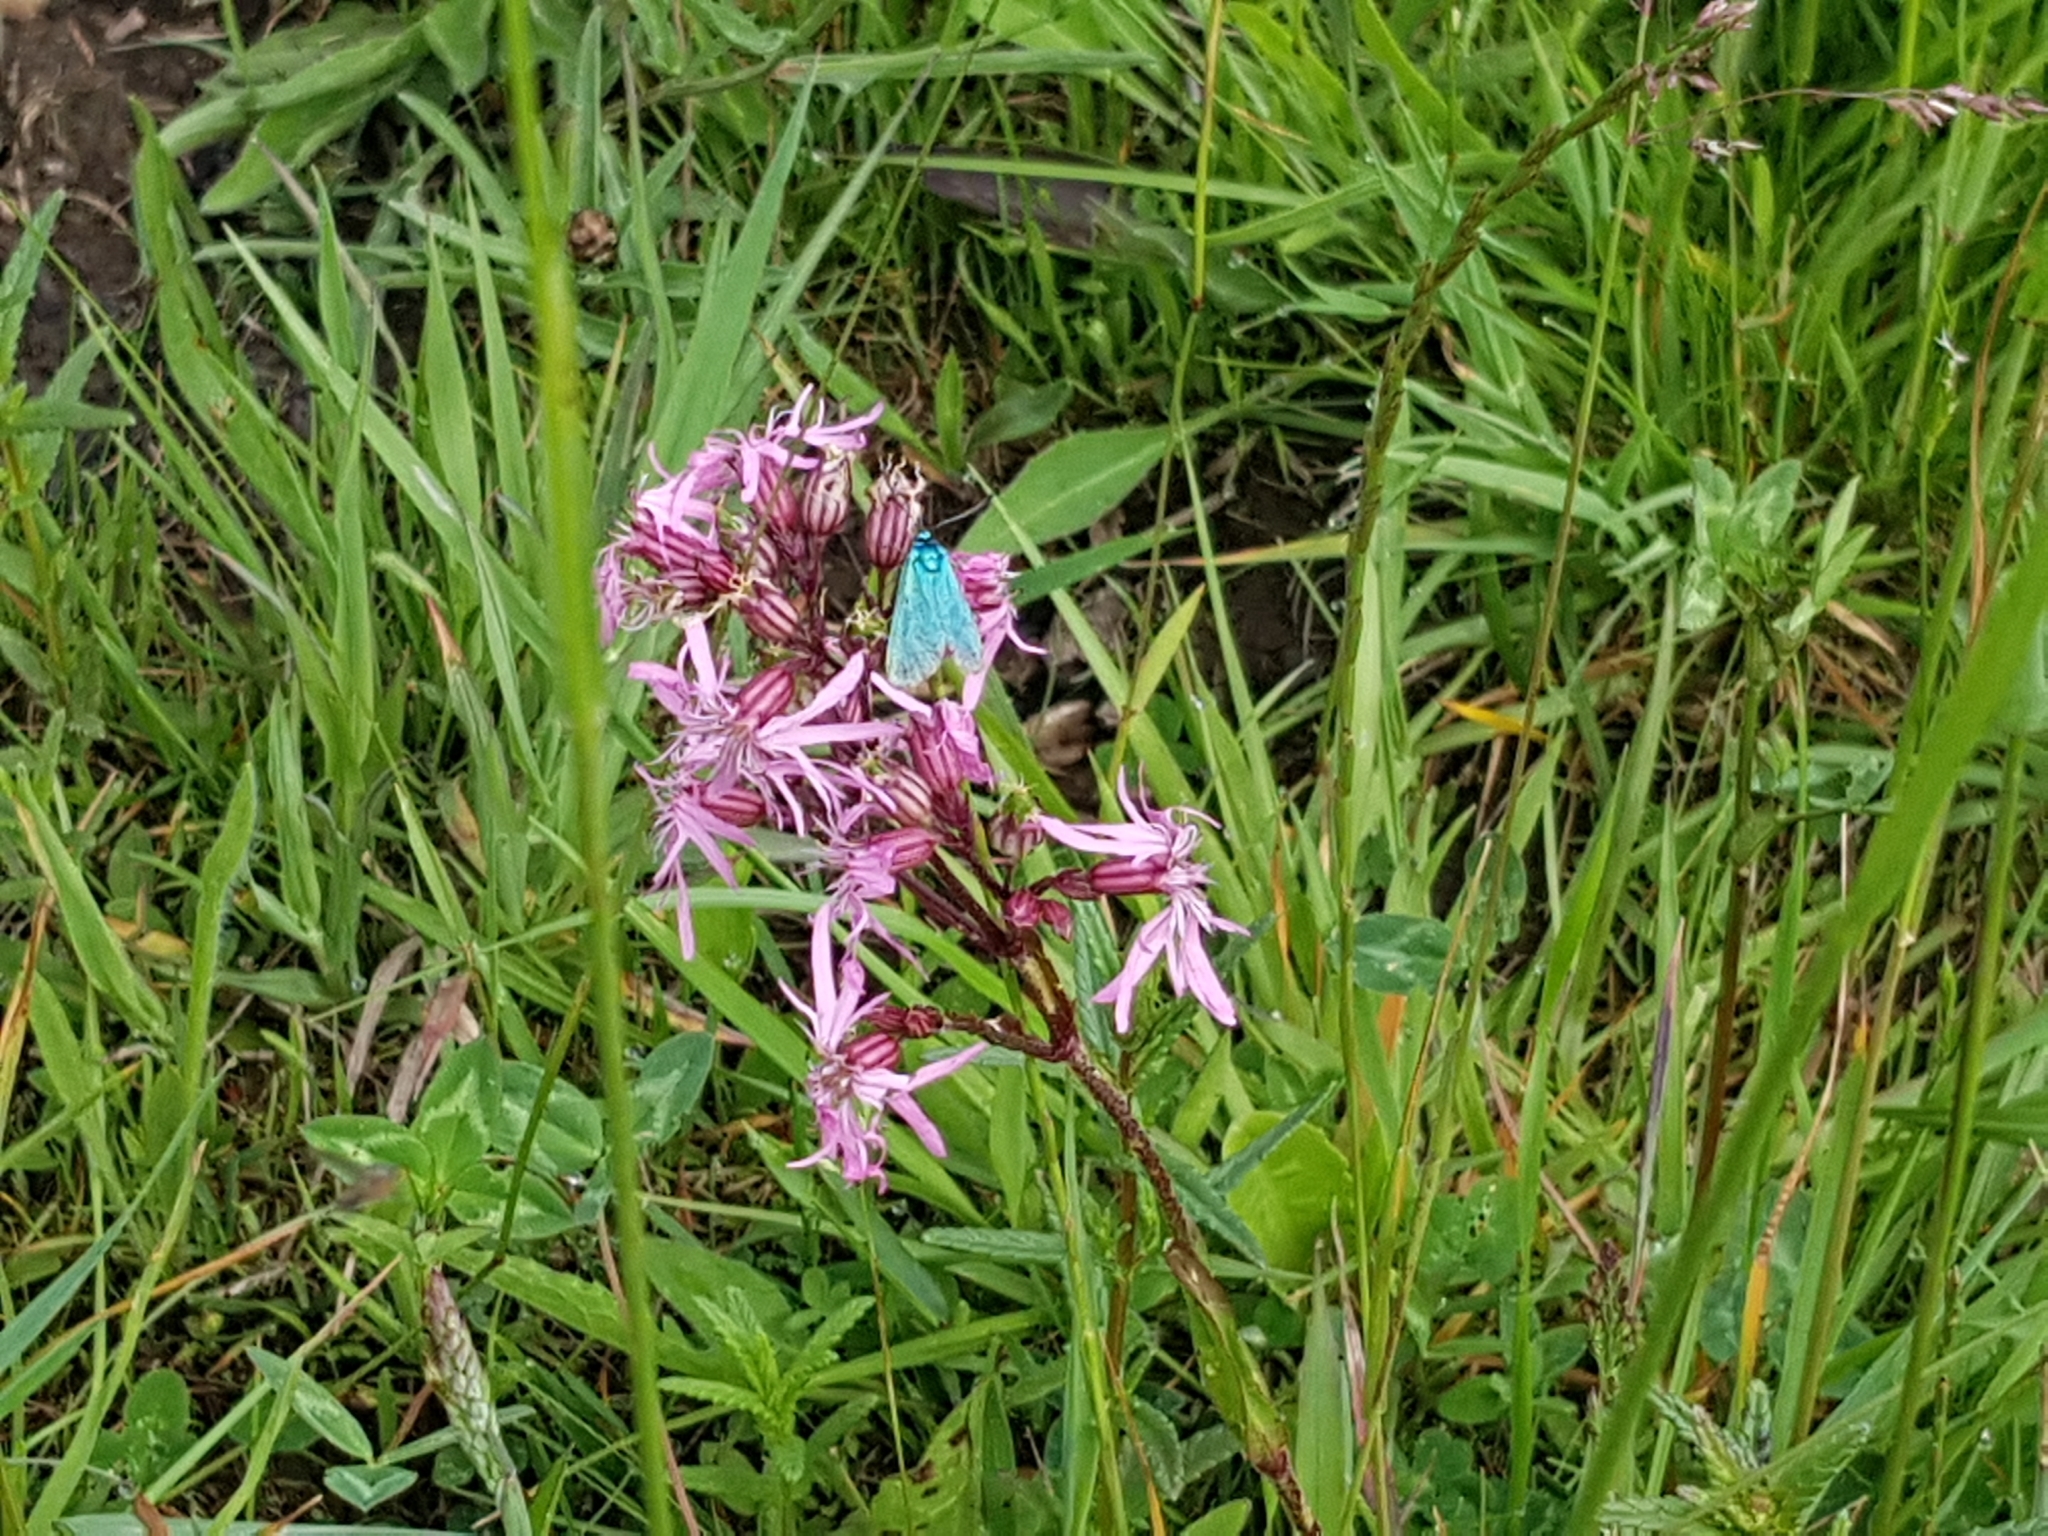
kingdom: Plantae
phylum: Tracheophyta
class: Magnoliopsida
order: Caryophyllales
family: Caryophyllaceae
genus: Silene
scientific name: Silene flos-cuculi
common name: Ragged-robin
